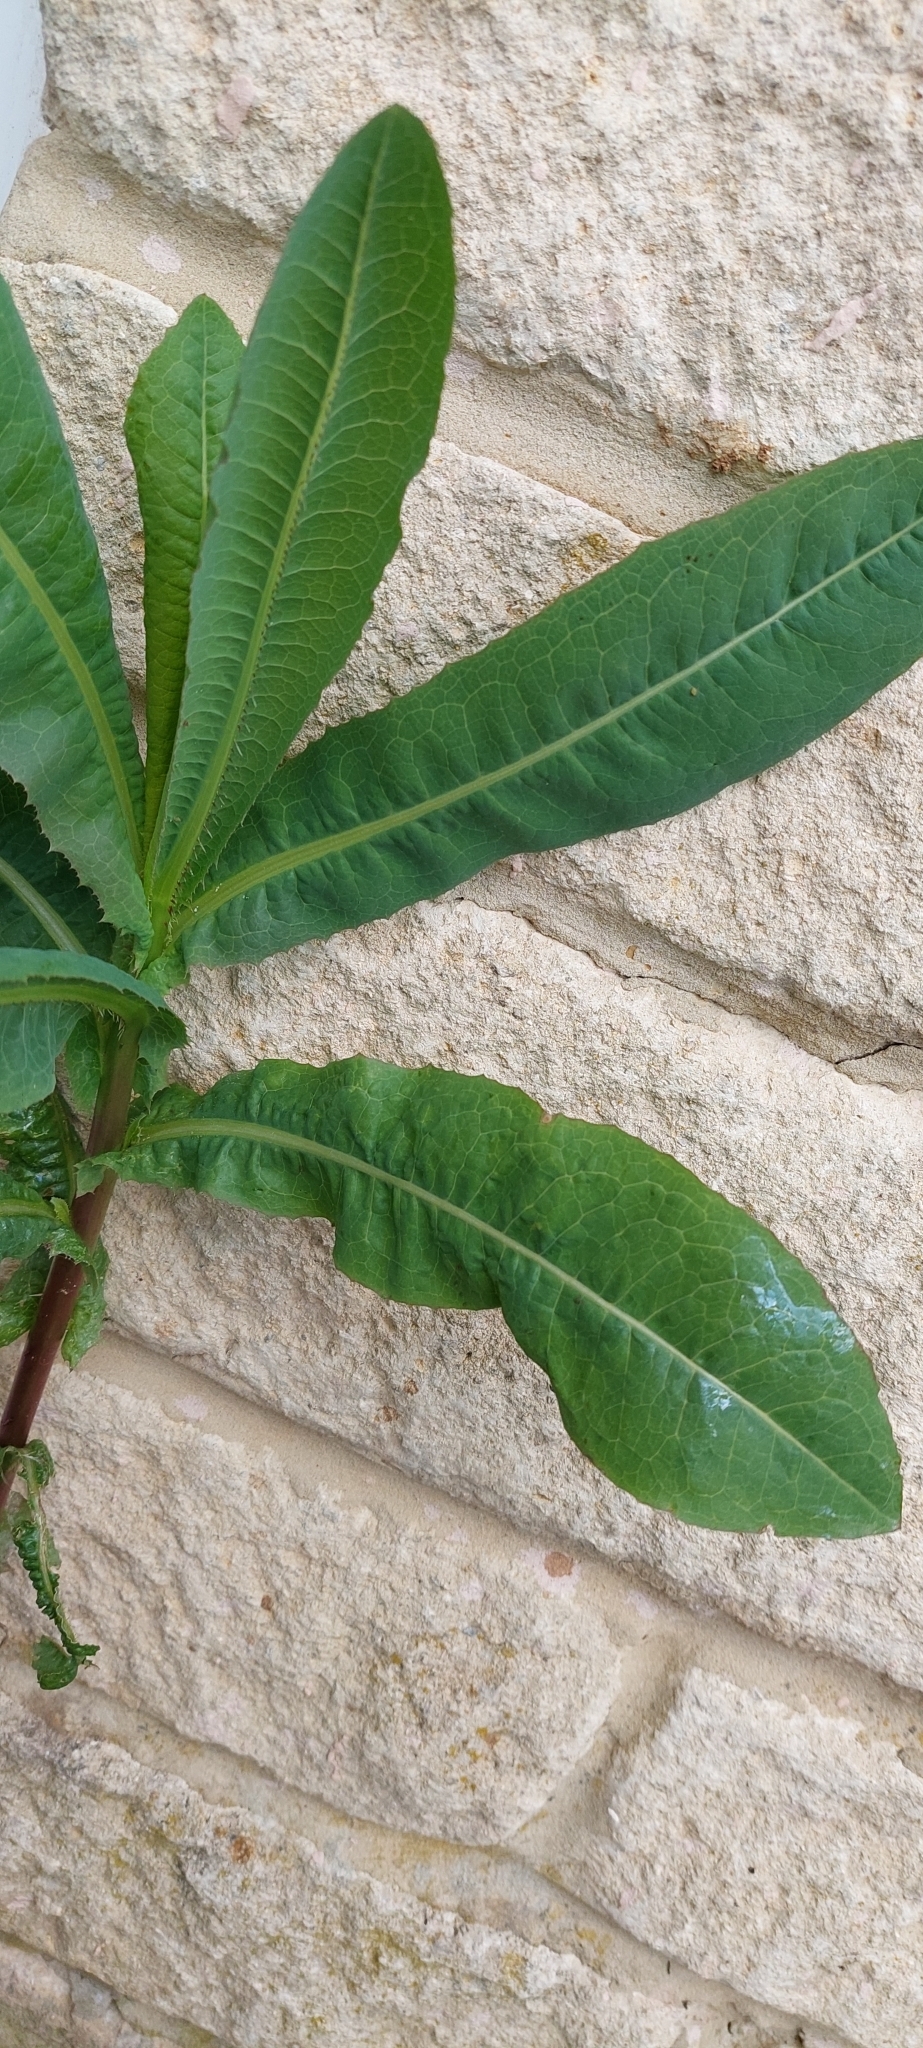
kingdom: Plantae
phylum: Tracheophyta
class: Magnoliopsida
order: Asterales
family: Asteraceae
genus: Lactuca
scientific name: Lactuca serriola
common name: Prickly lettuce
